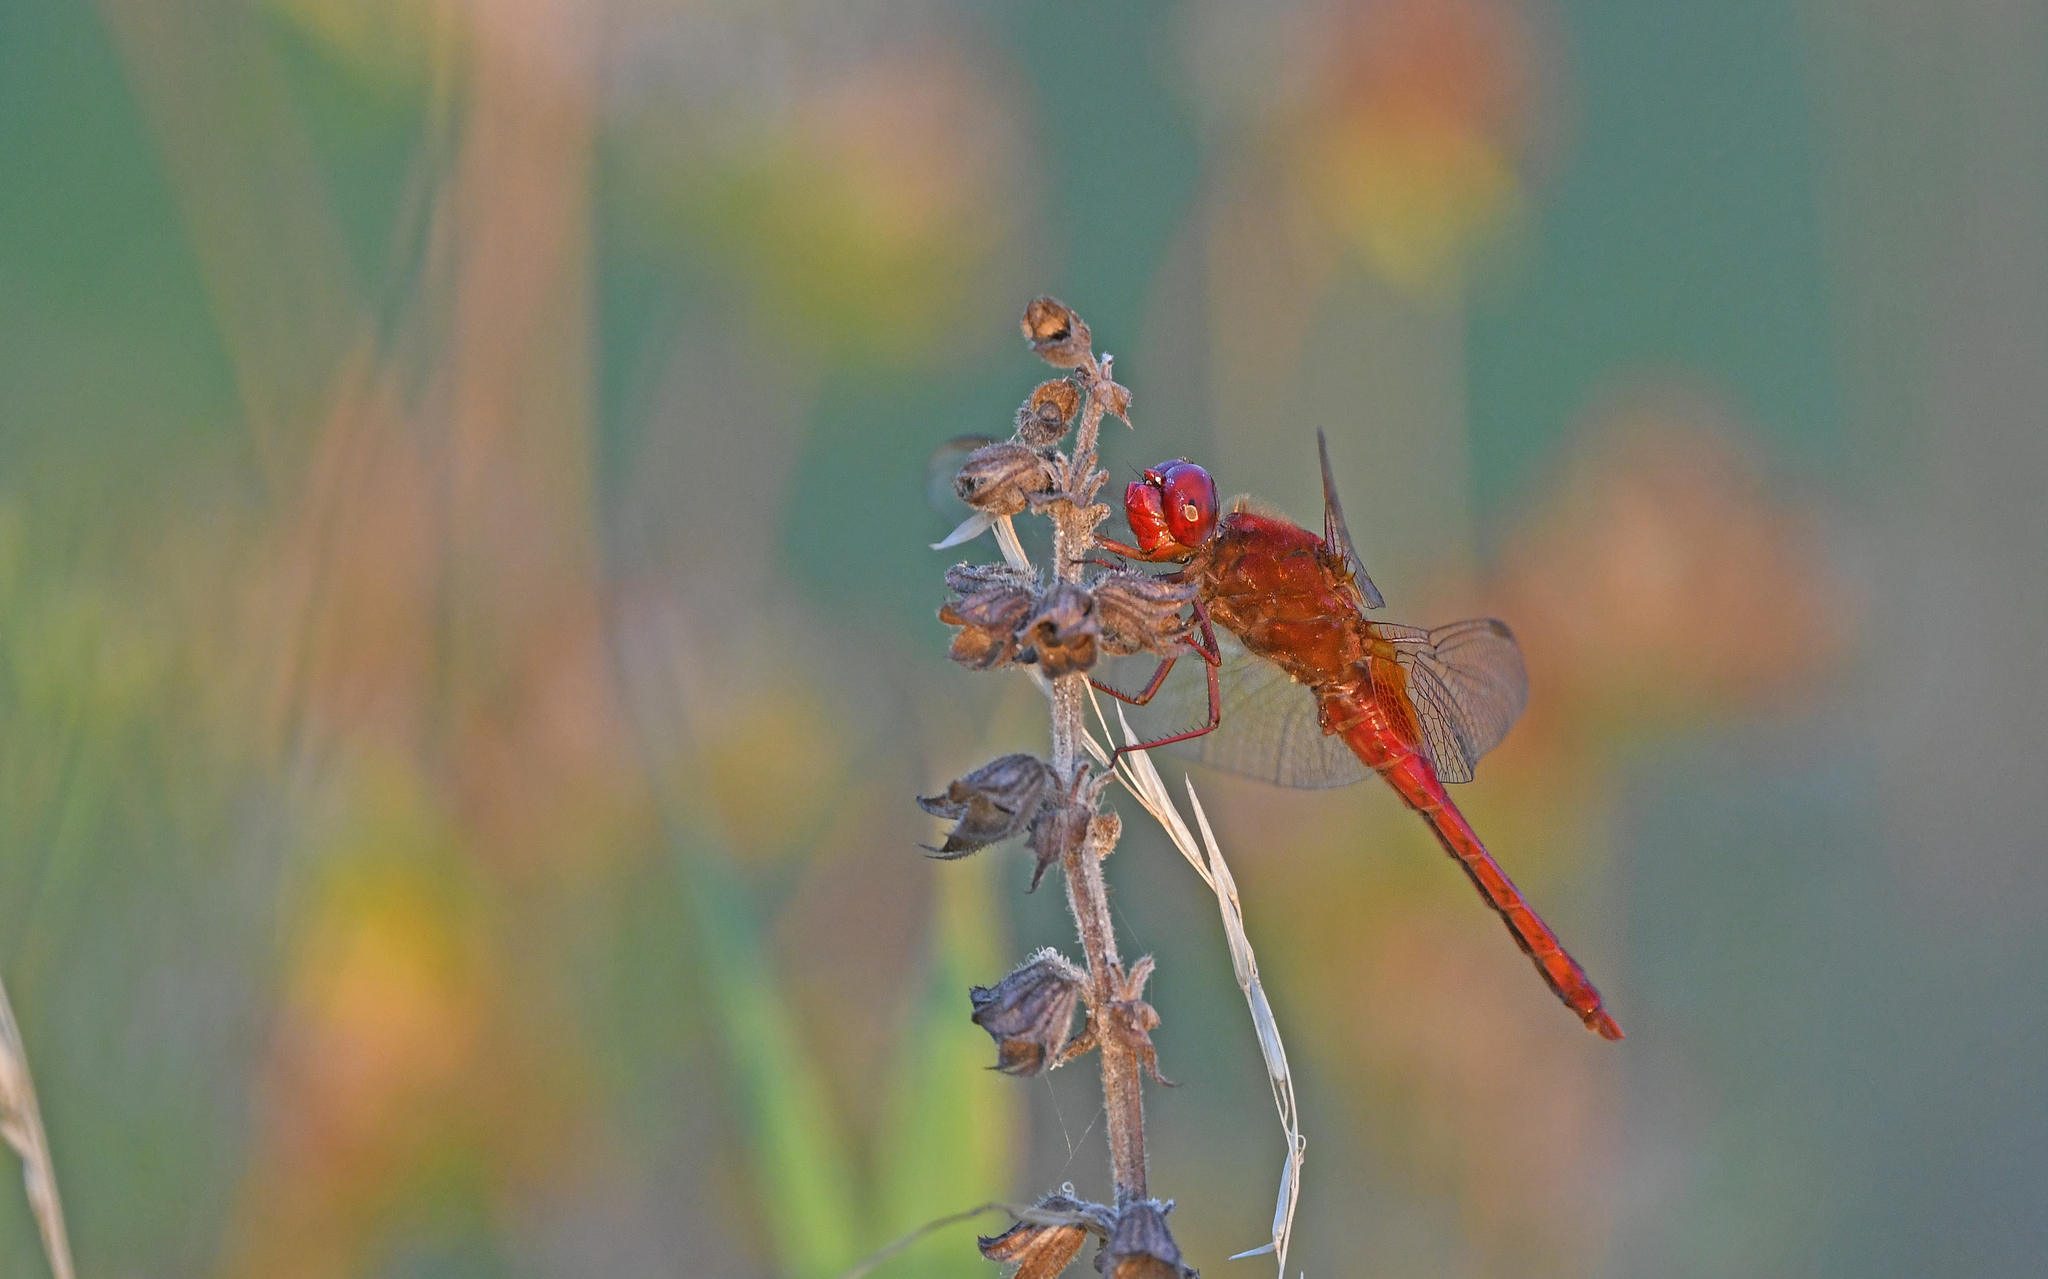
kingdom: Animalia
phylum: Arthropoda
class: Insecta
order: Odonata
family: Libellulidae
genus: Crocothemis
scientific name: Crocothemis erythraea
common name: Scarlet dragonfly
